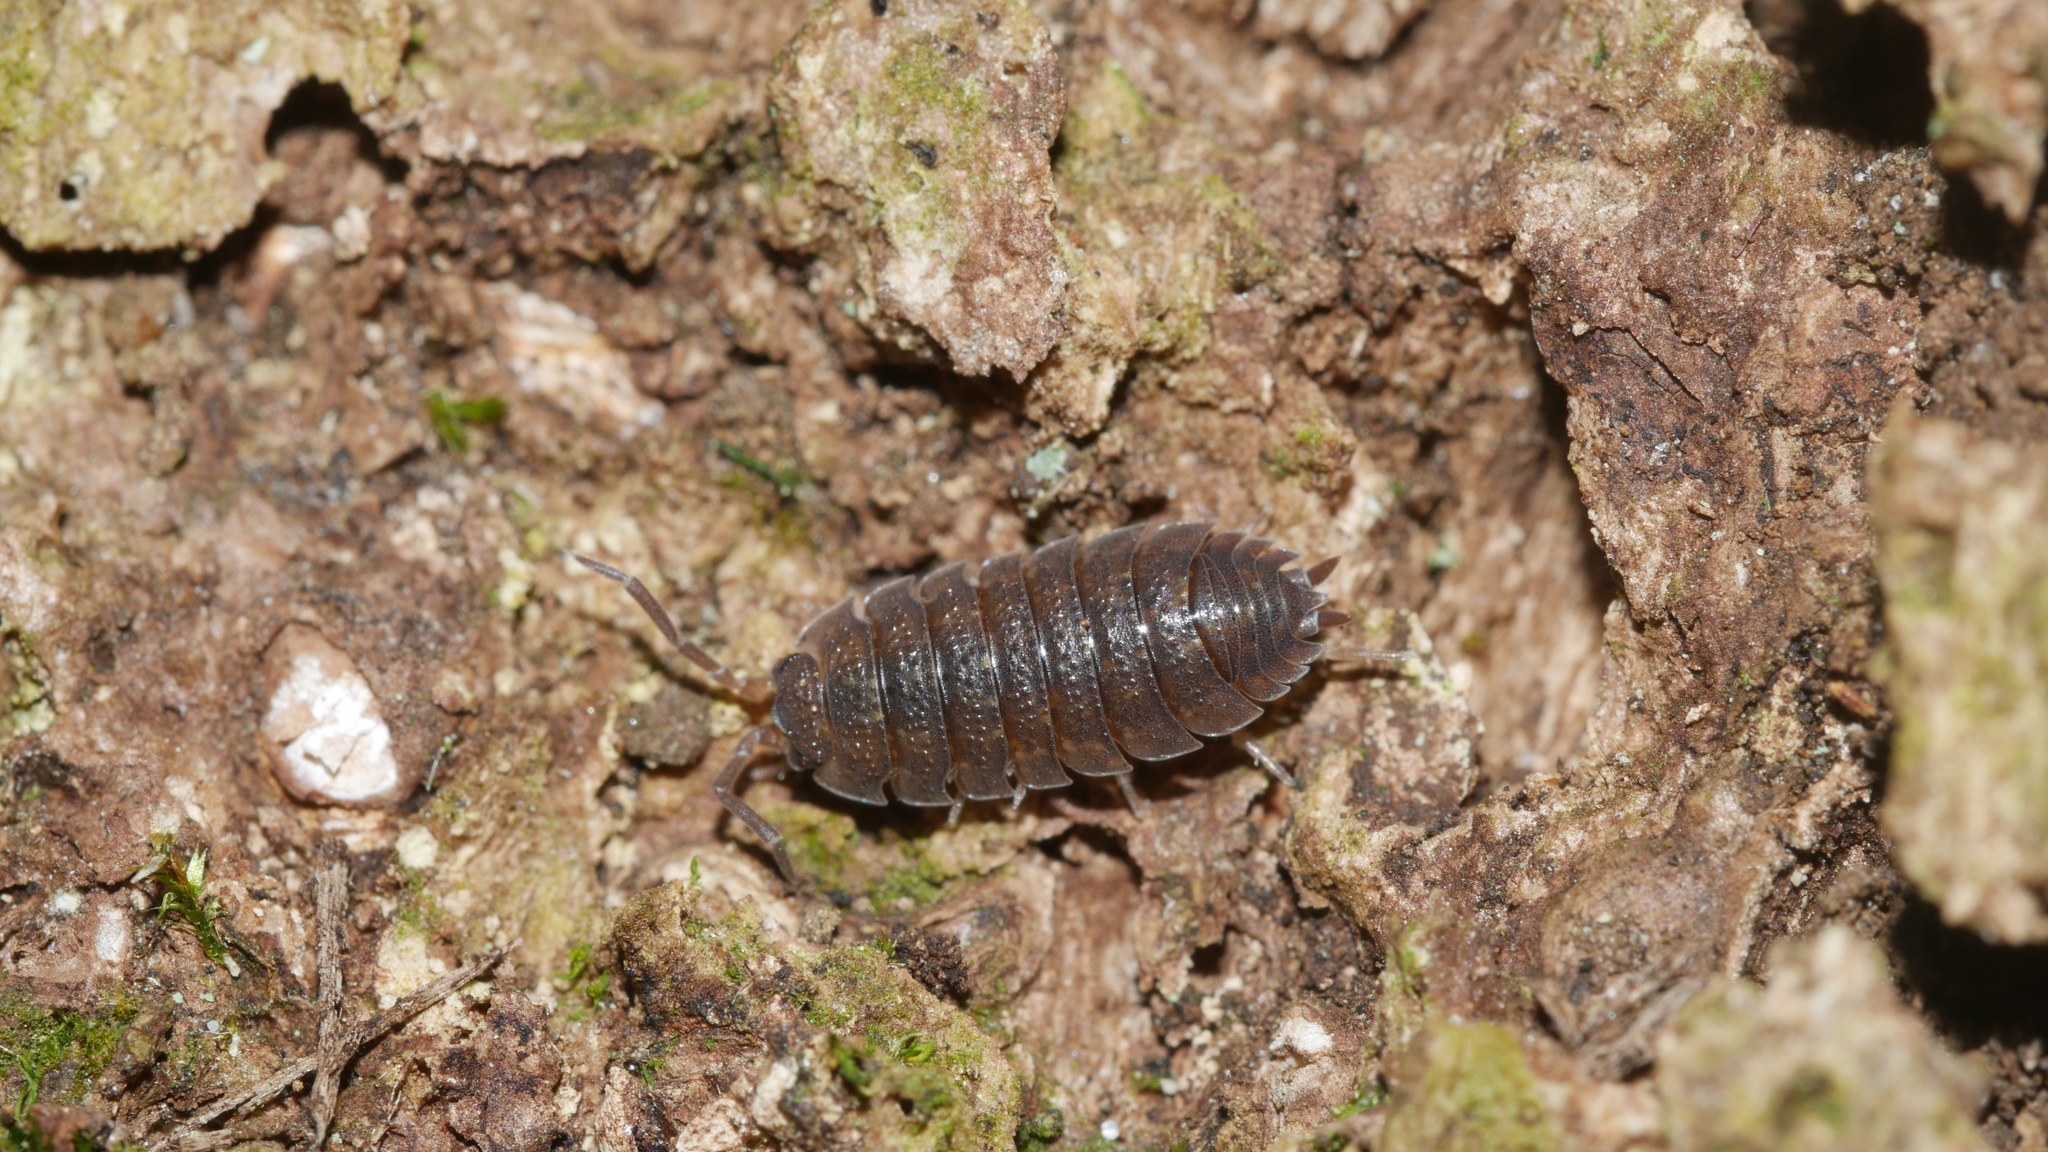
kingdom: Animalia
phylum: Arthropoda
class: Malacostraca
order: Isopoda
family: Porcellionidae
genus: Porcellio
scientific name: Porcellio scaber
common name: Common rough woodlouse
